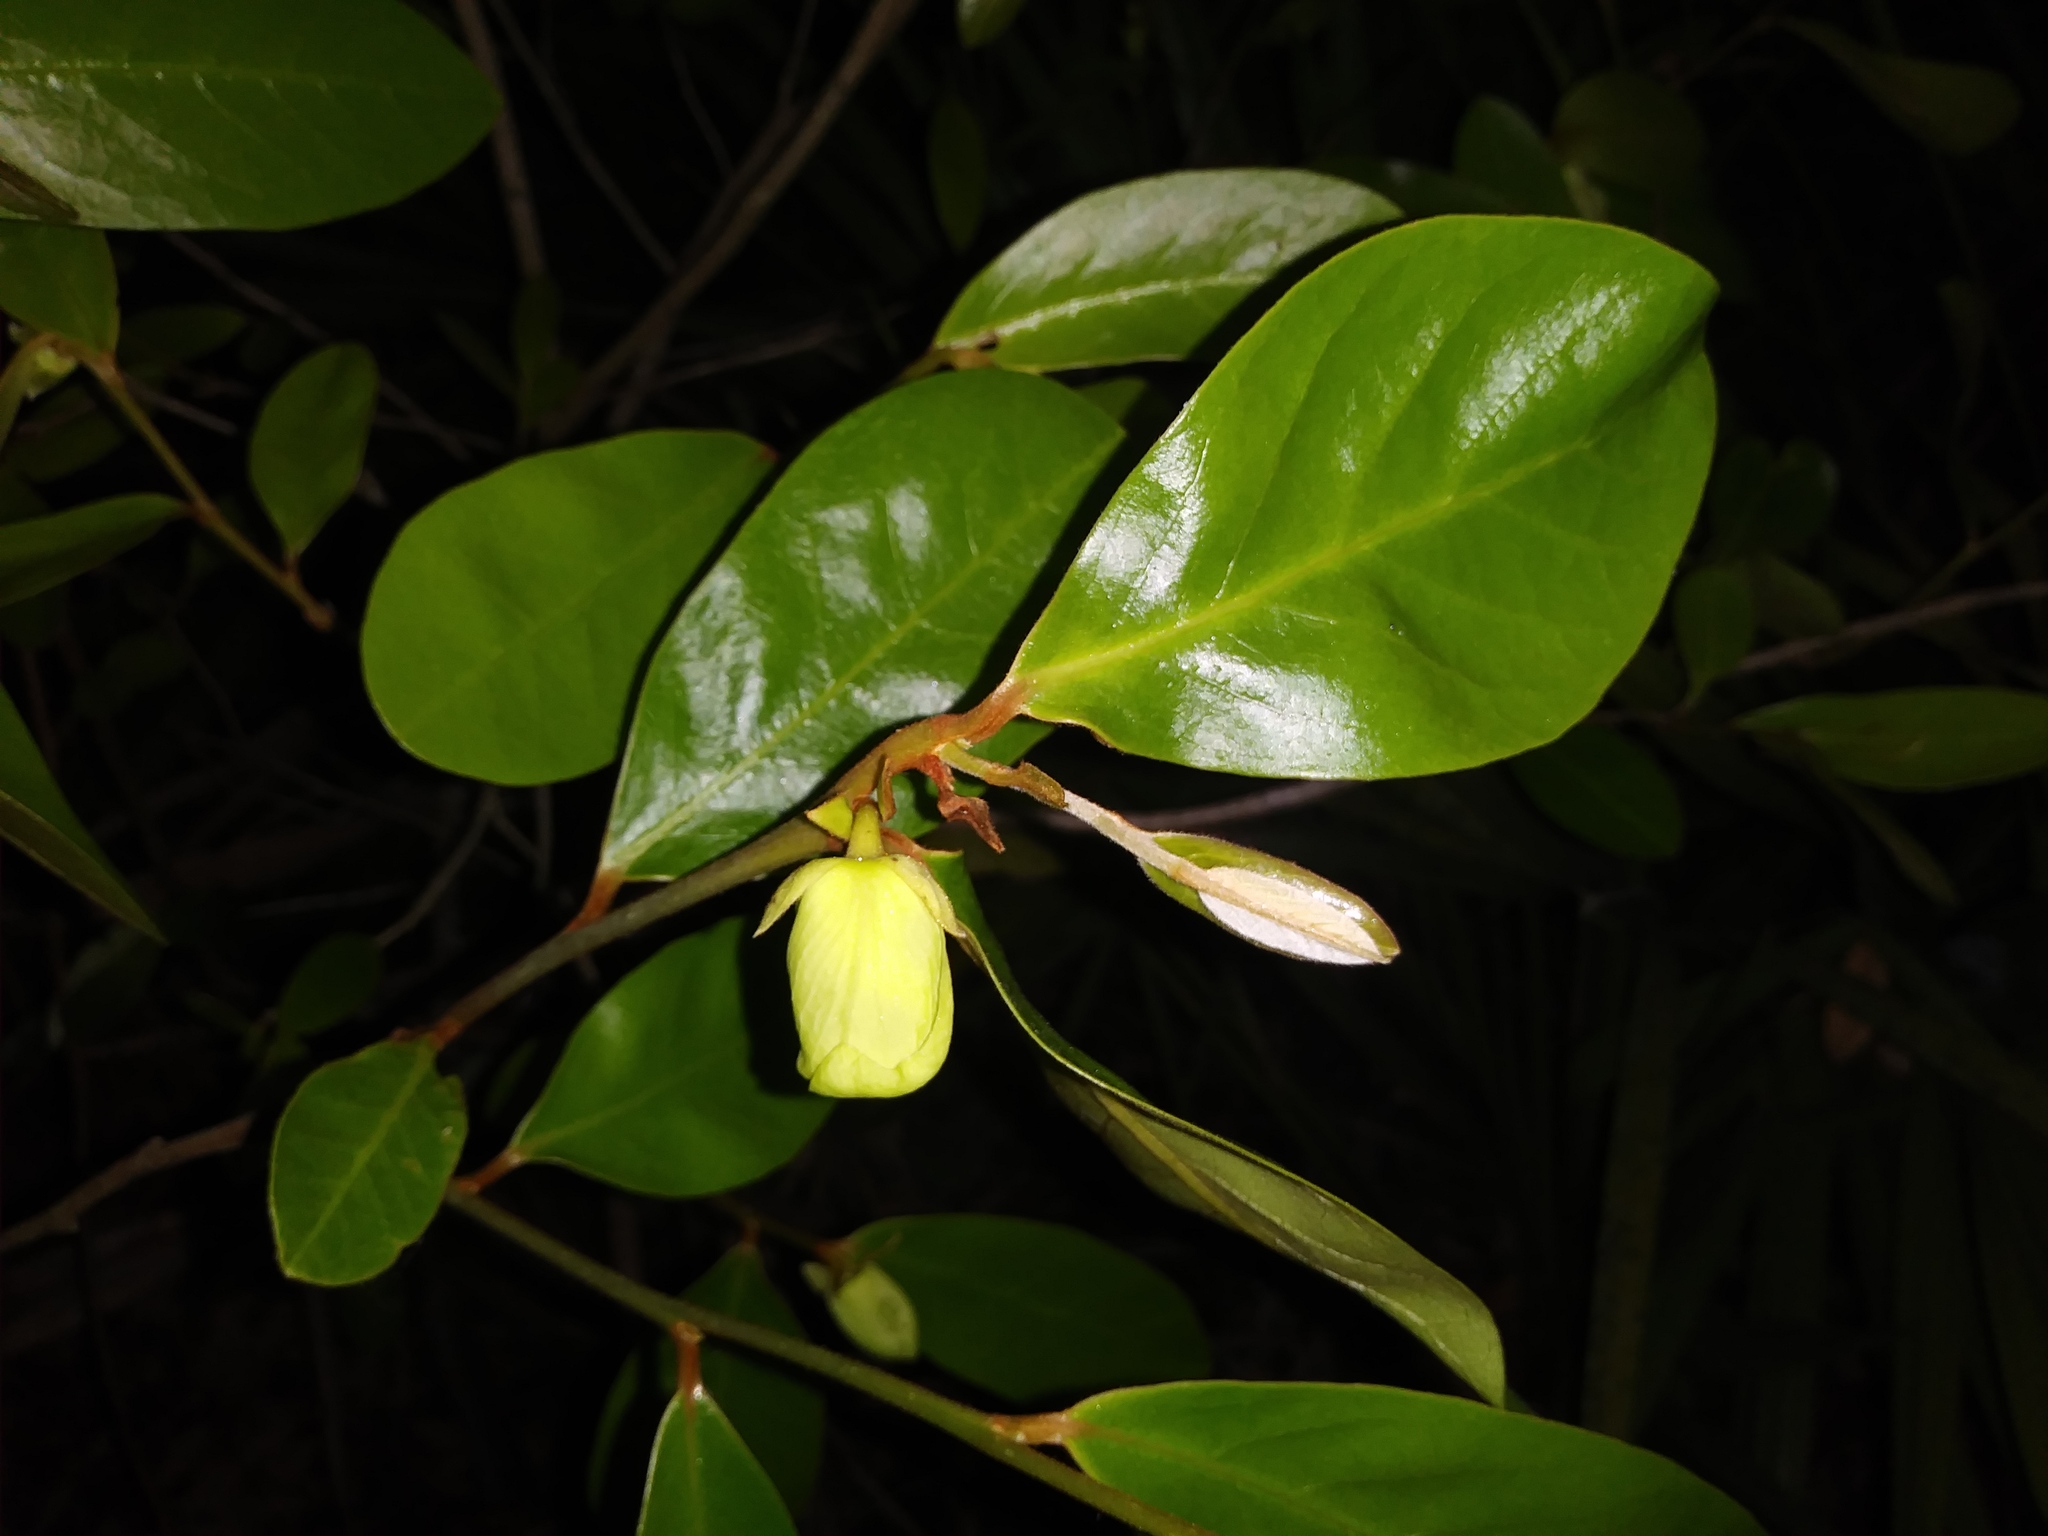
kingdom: Plantae
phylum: Tracheophyta
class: Magnoliopsida
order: Magnoliales
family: Annonaceae
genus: Asimina
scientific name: Asimina obovata
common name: Flag pawpaw
